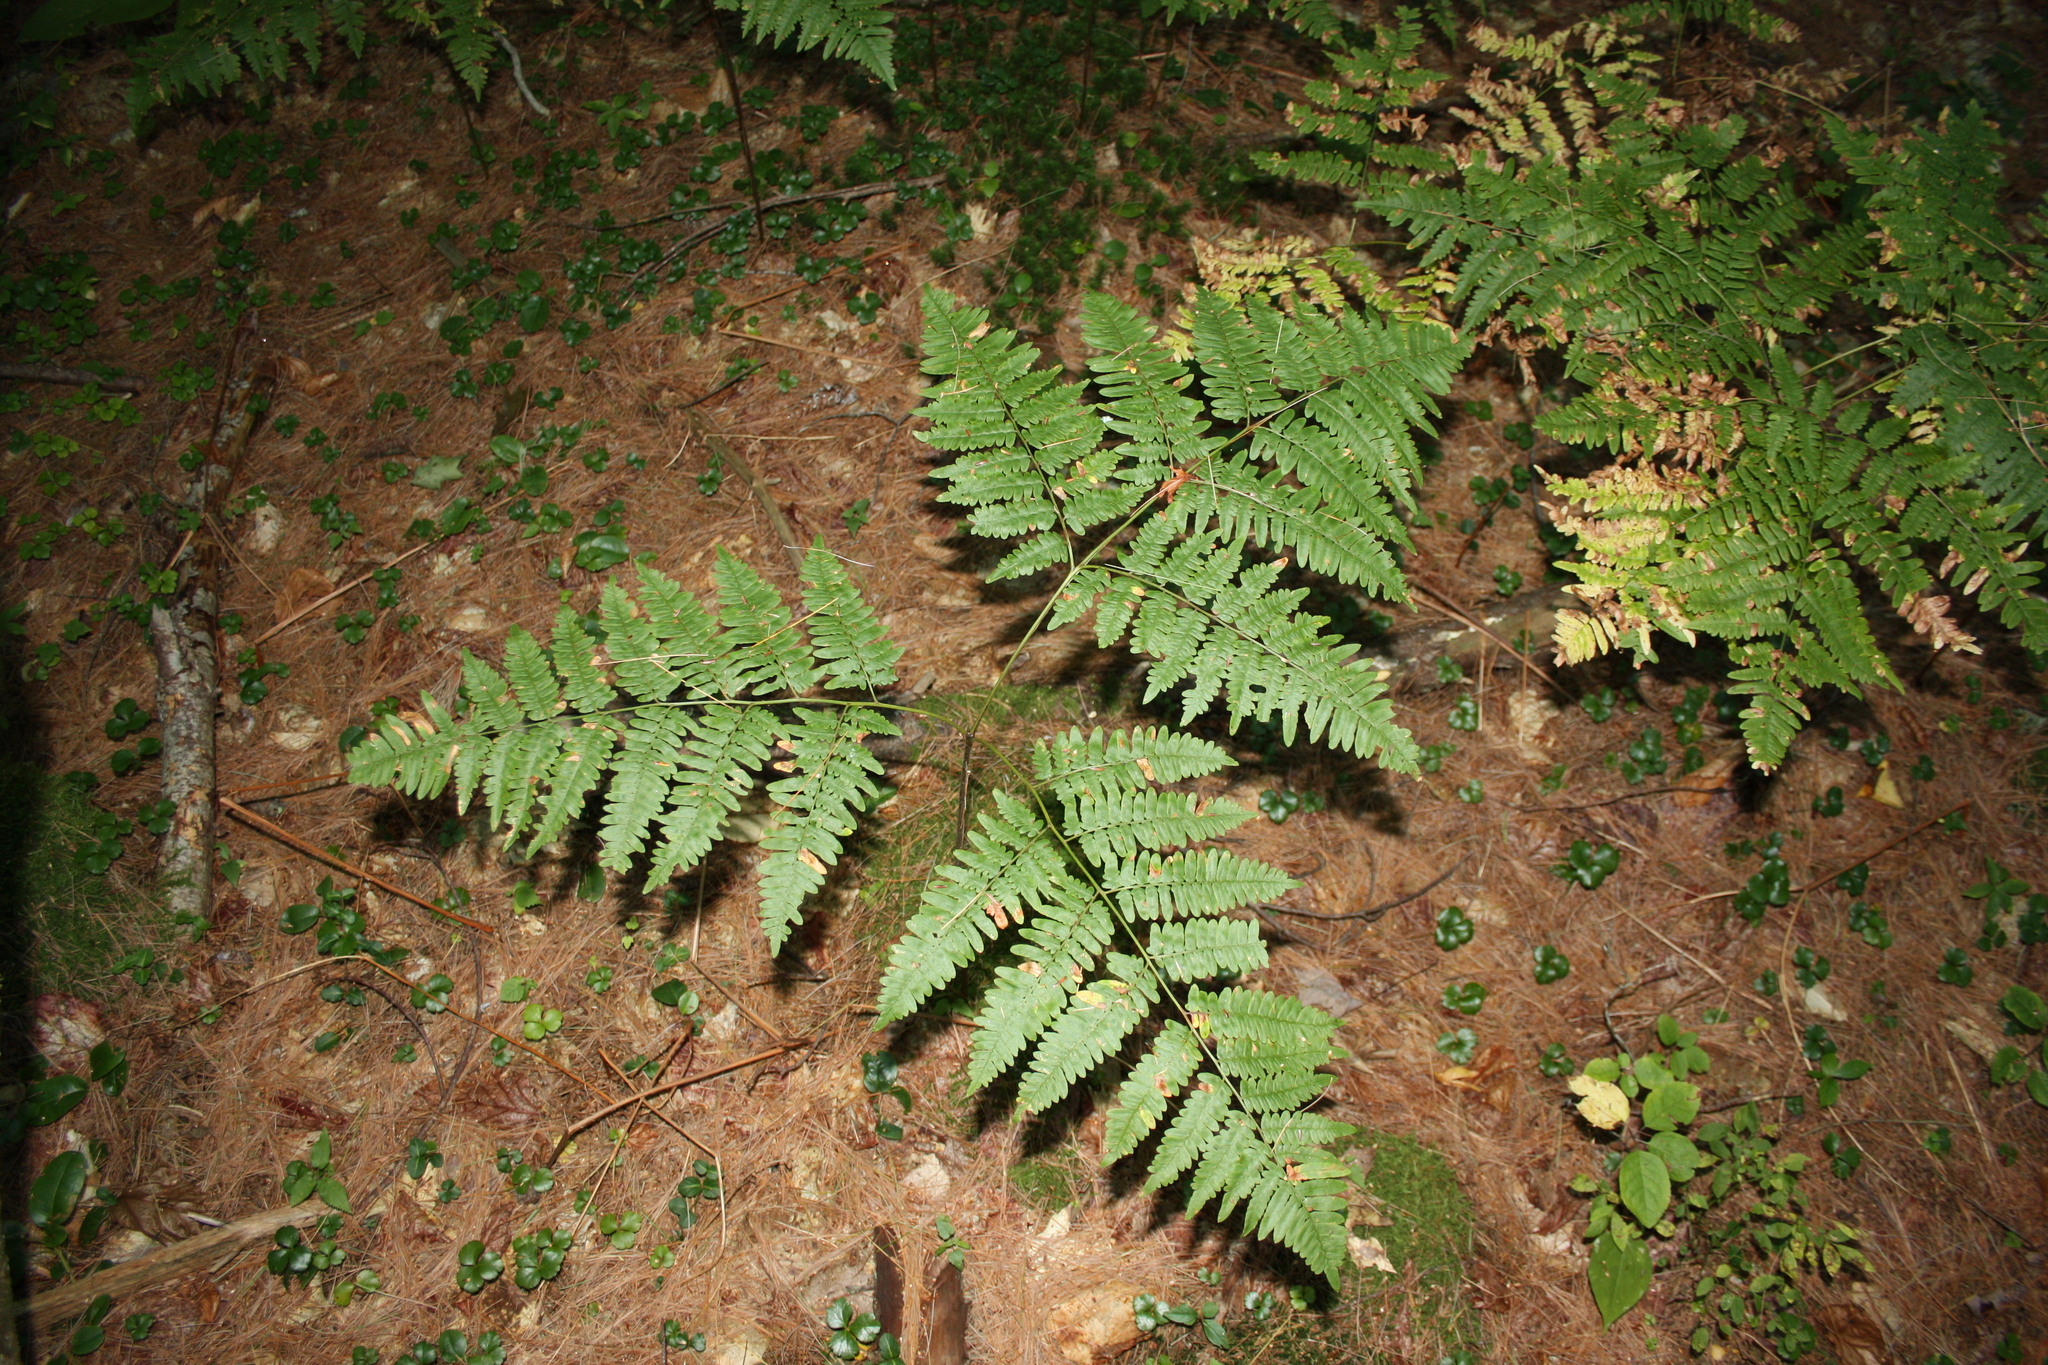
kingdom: Plantae
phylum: Tracheophyta
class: Polypodiopsida
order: Polypodiales
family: Dennstaedtiaceae
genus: Pteridium
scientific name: Pteridium aquilinum
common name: Bracken
